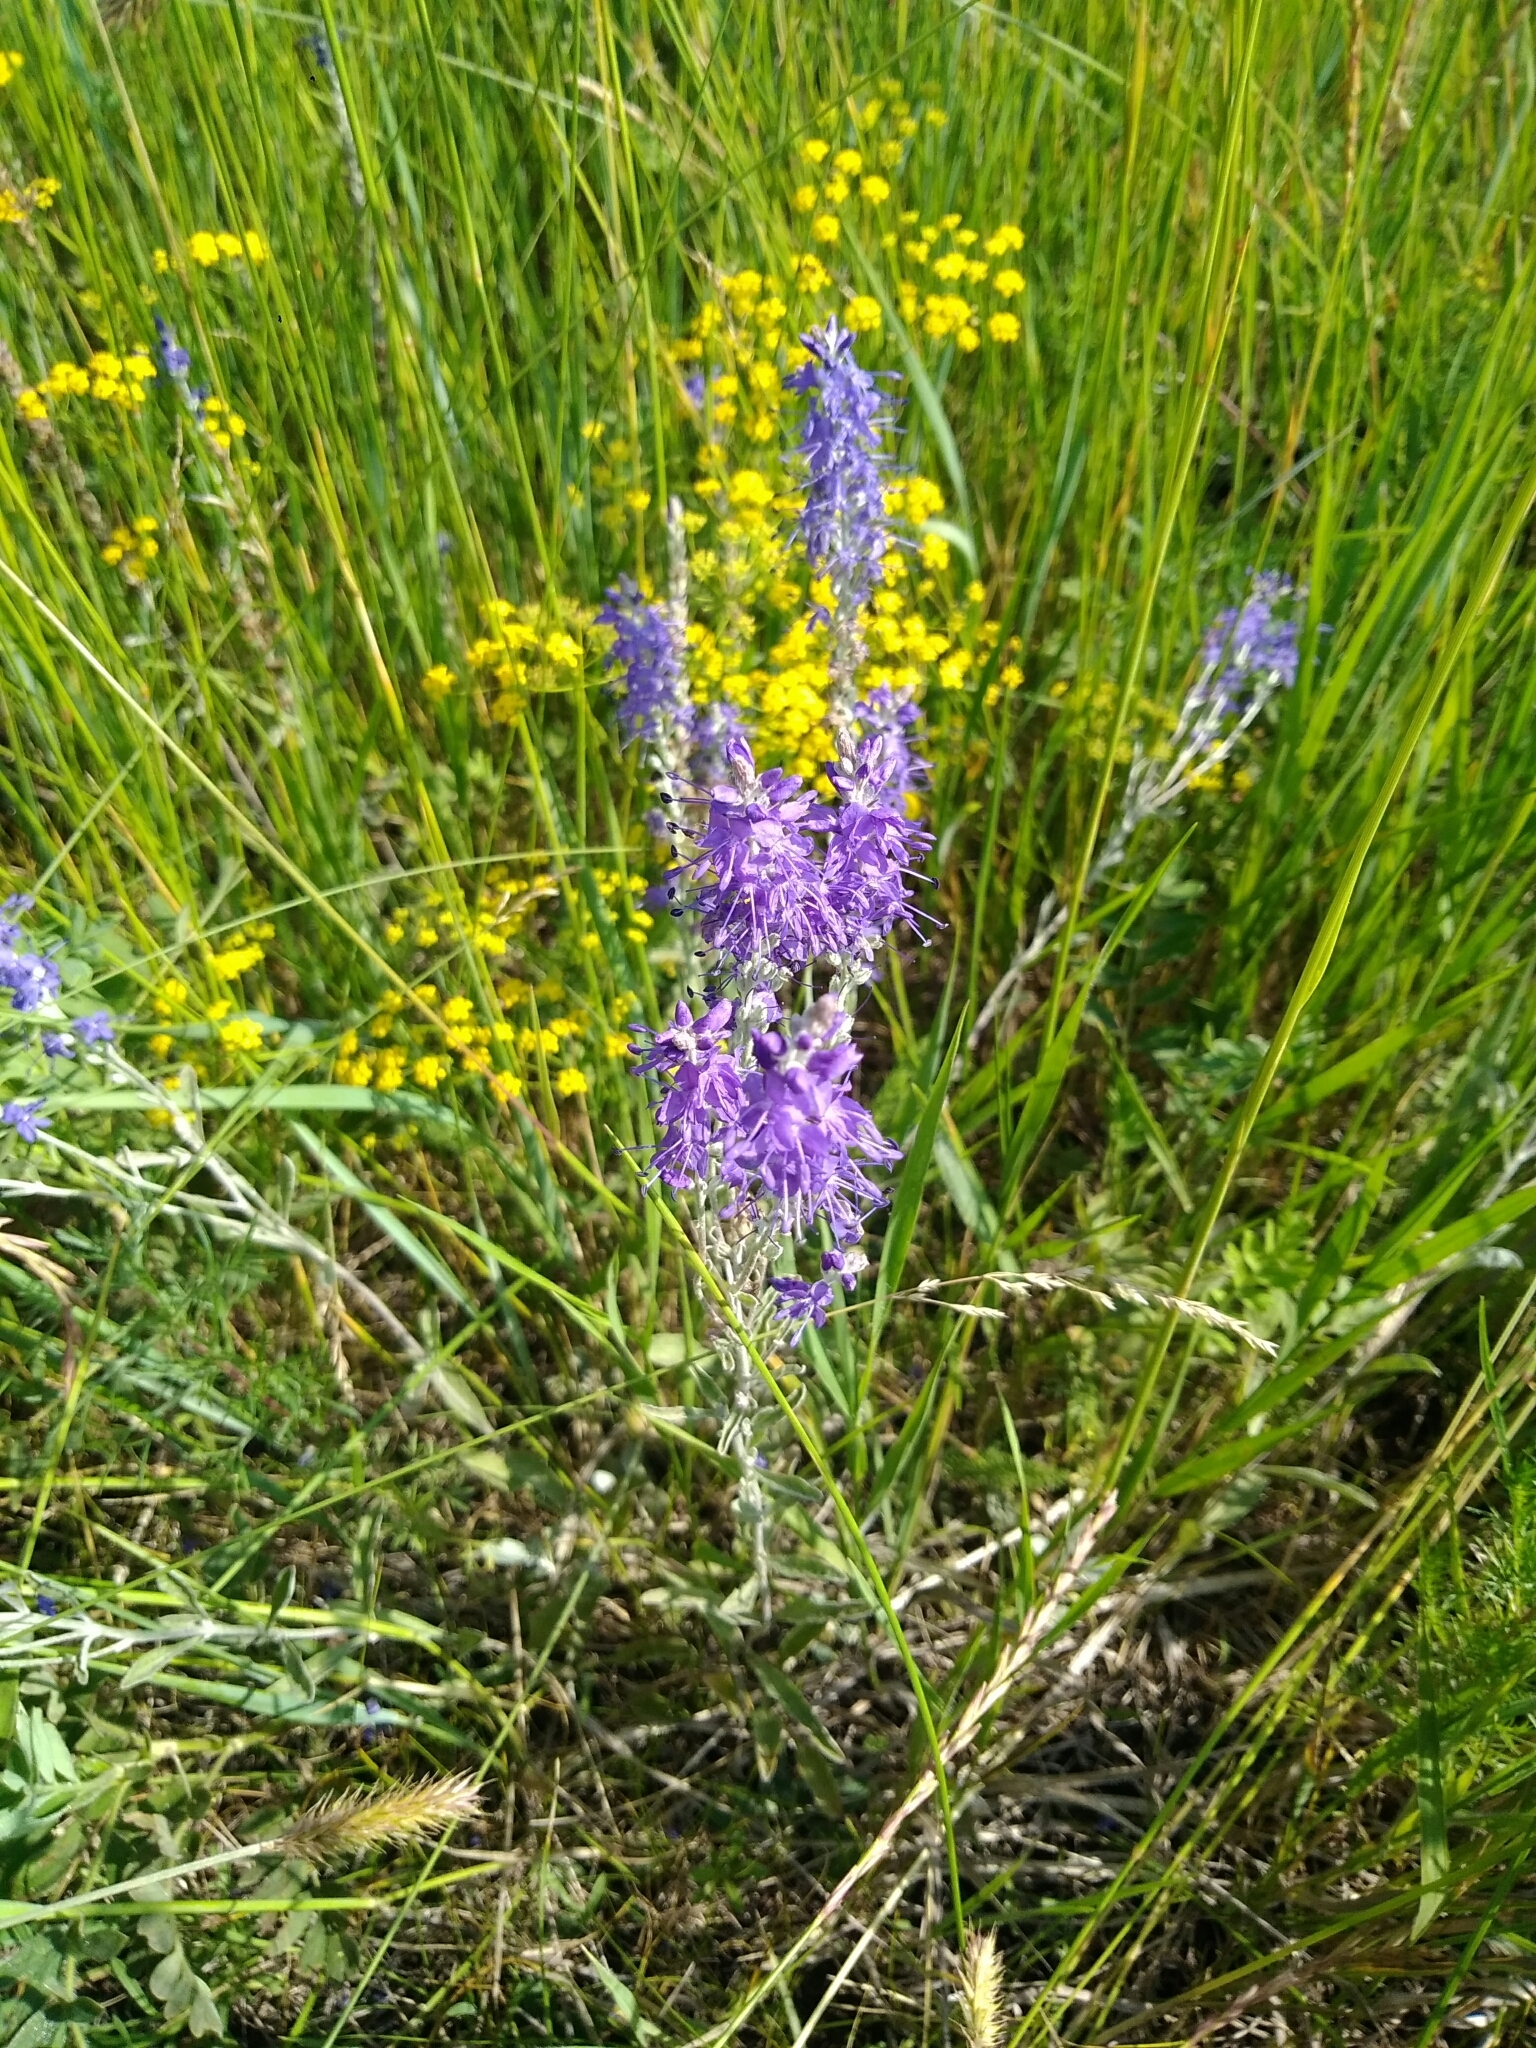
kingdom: Plantae
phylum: Tracheophyta
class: Magnoliopsida
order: Lamiales
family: Plantaginaceae
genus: Veronica
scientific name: Veronica incana
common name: Silver speedwell
